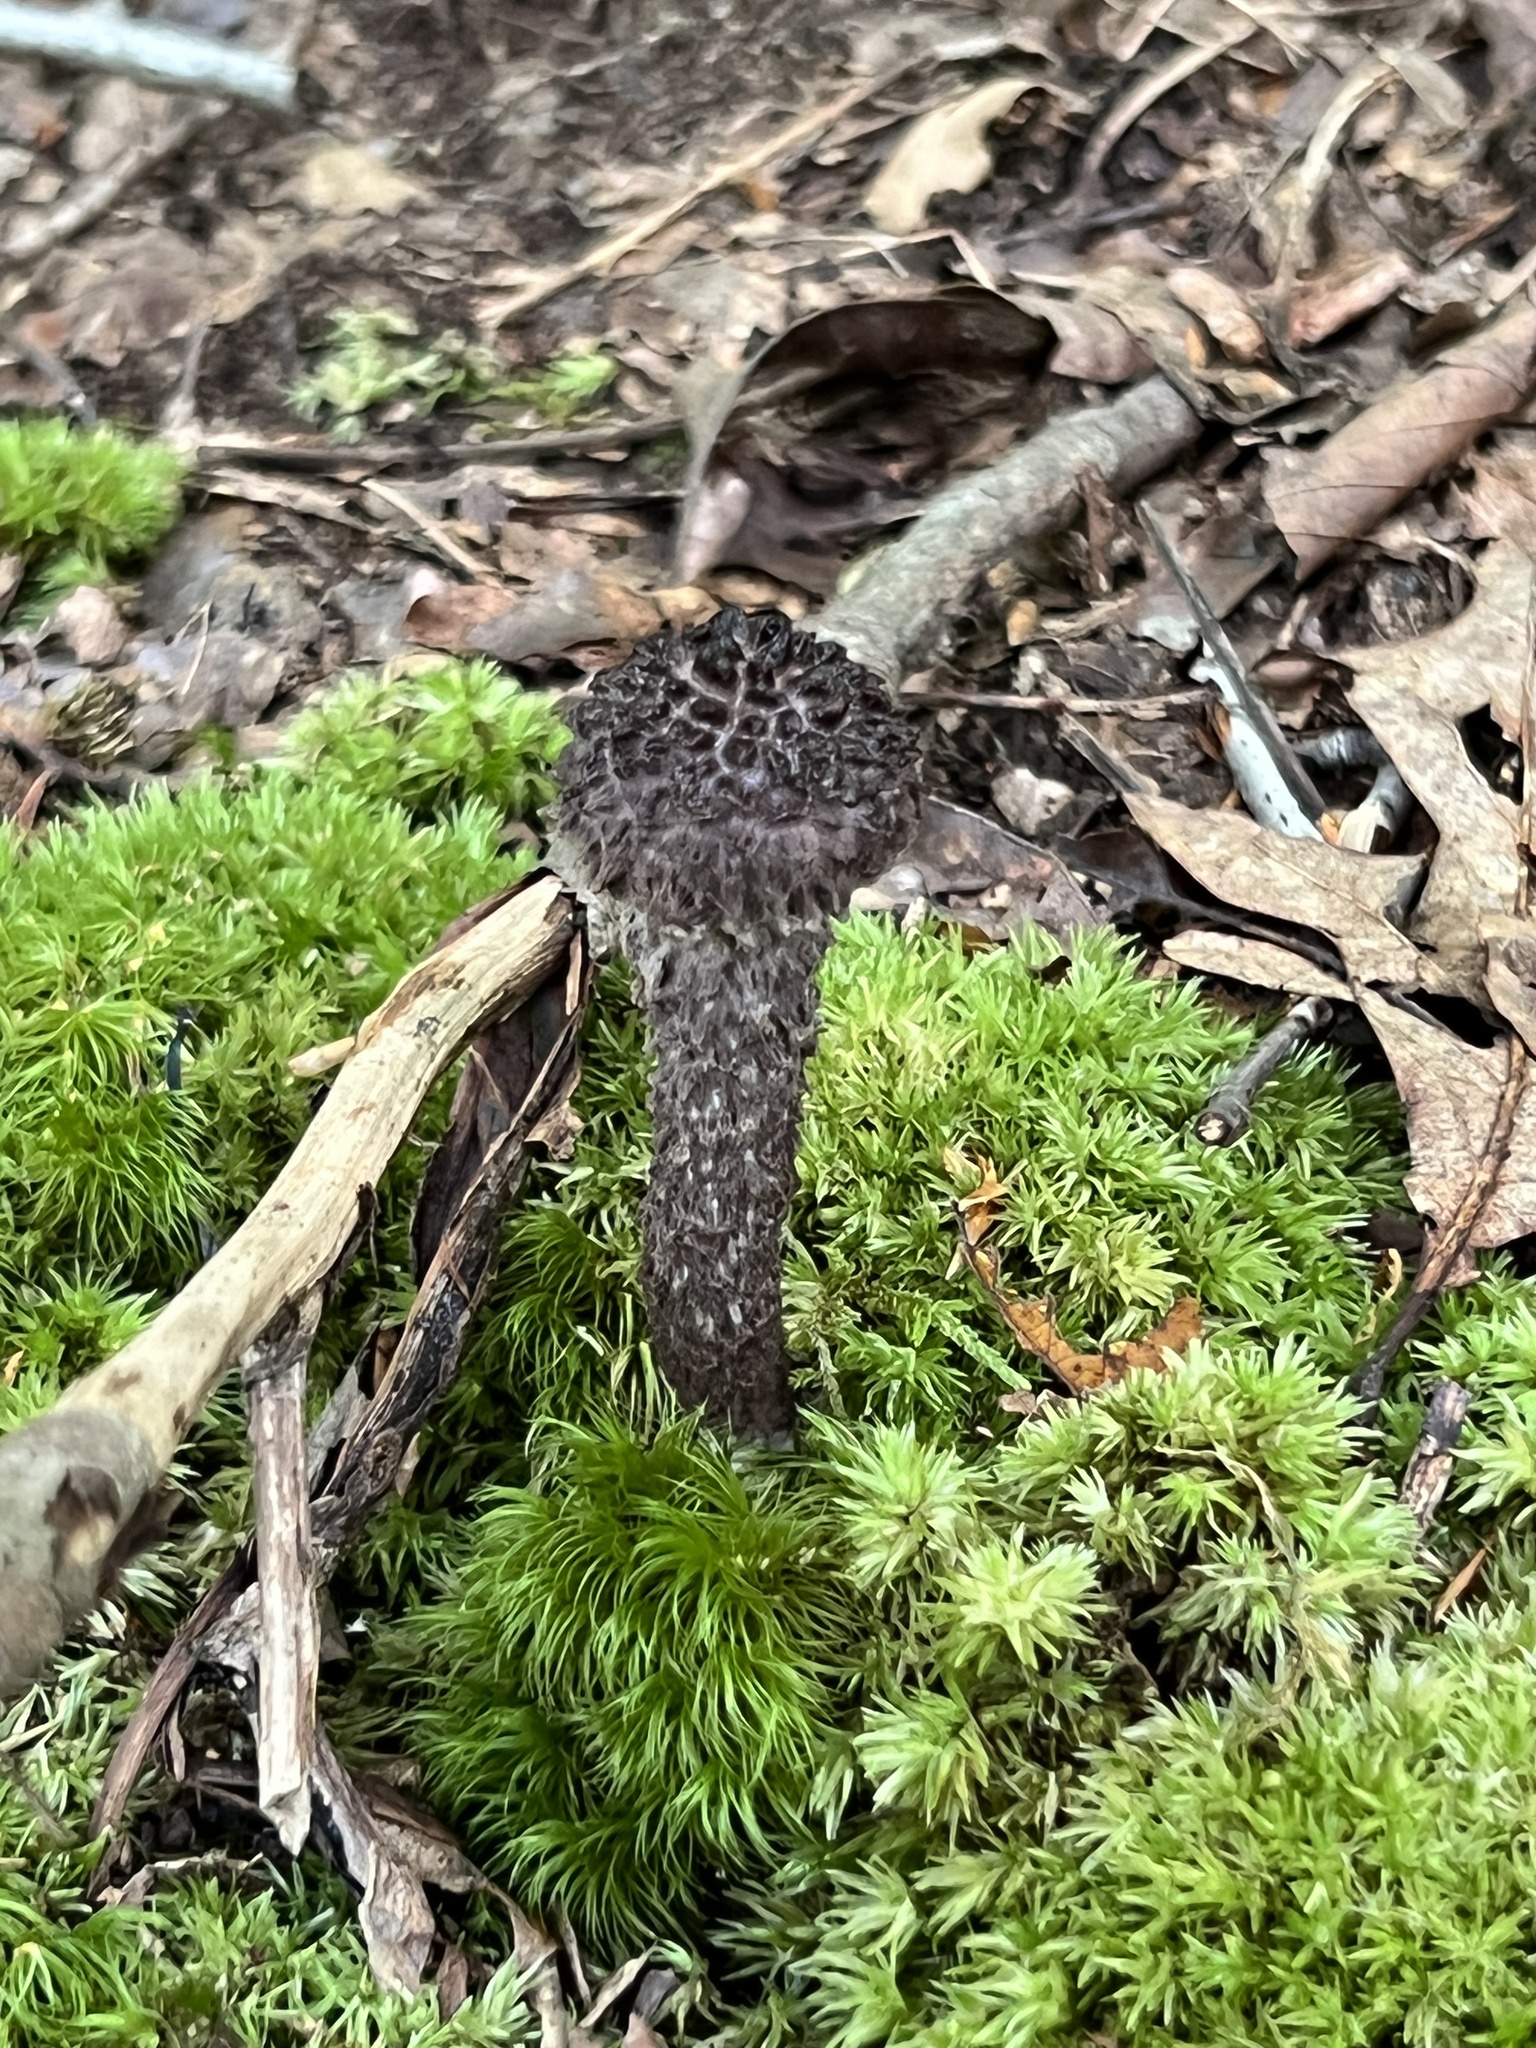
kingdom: Fungi
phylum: Basidiomycota
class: Agaricomycetes
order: Boletales
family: Boletaceae
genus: Strobilomyces
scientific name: Strobilomyces strobilaceus
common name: Old man of the woods
